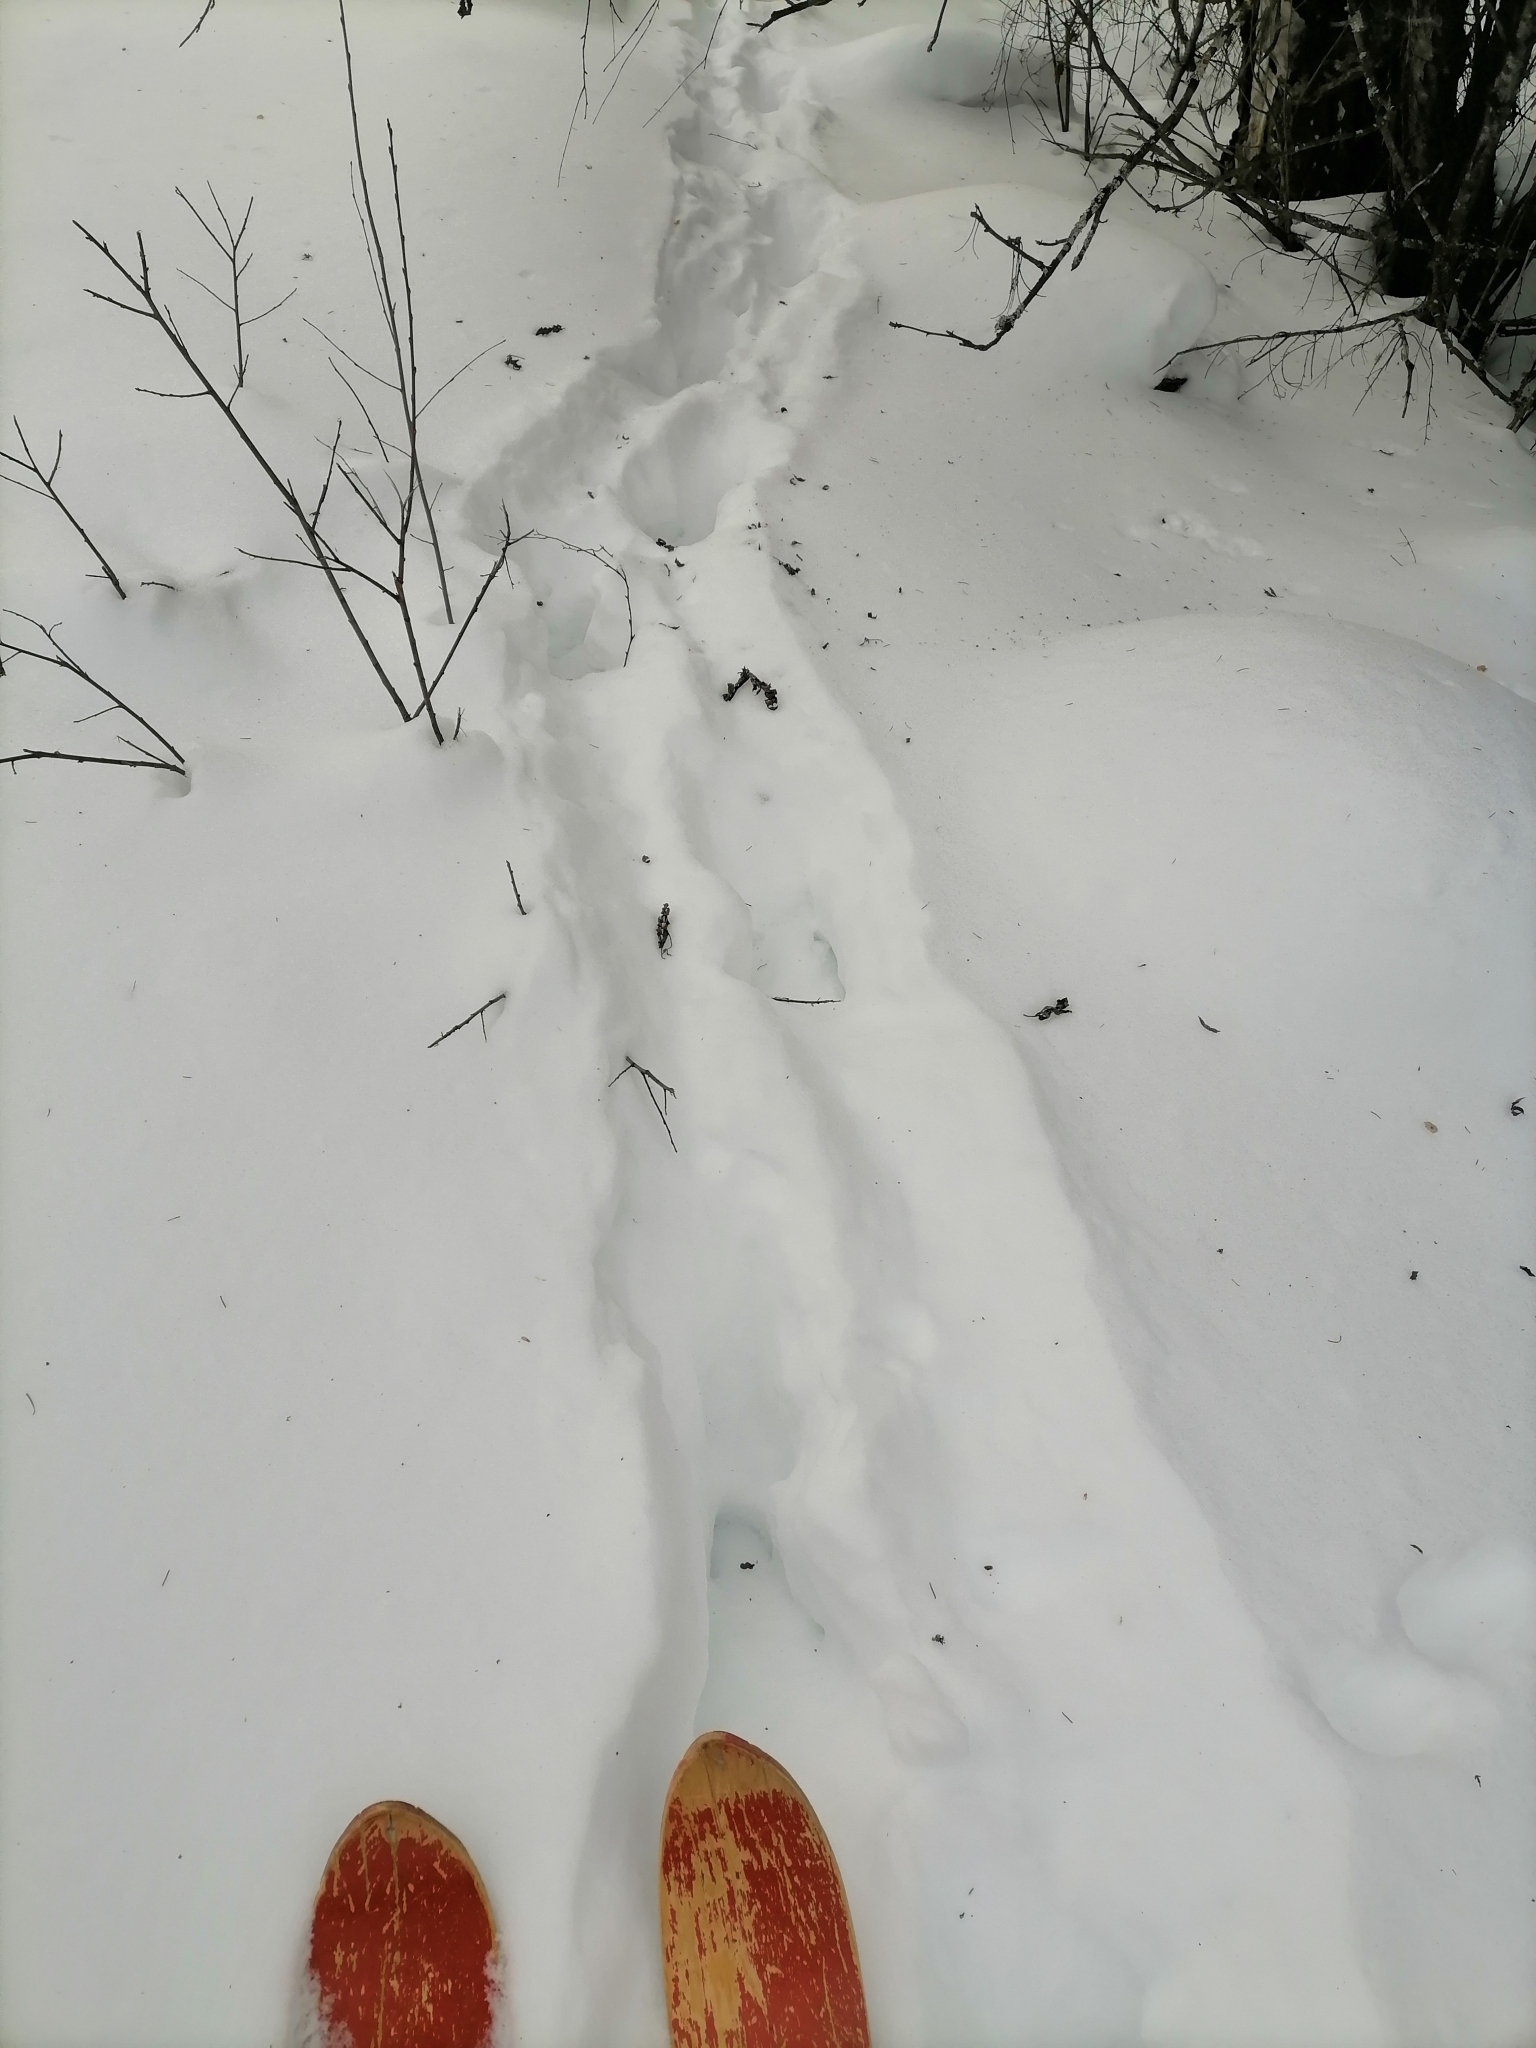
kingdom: Animalia
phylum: Chordata
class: Mammalia
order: Artiodactyla
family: Cervidae
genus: Alces
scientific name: Alces alces
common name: Moose
